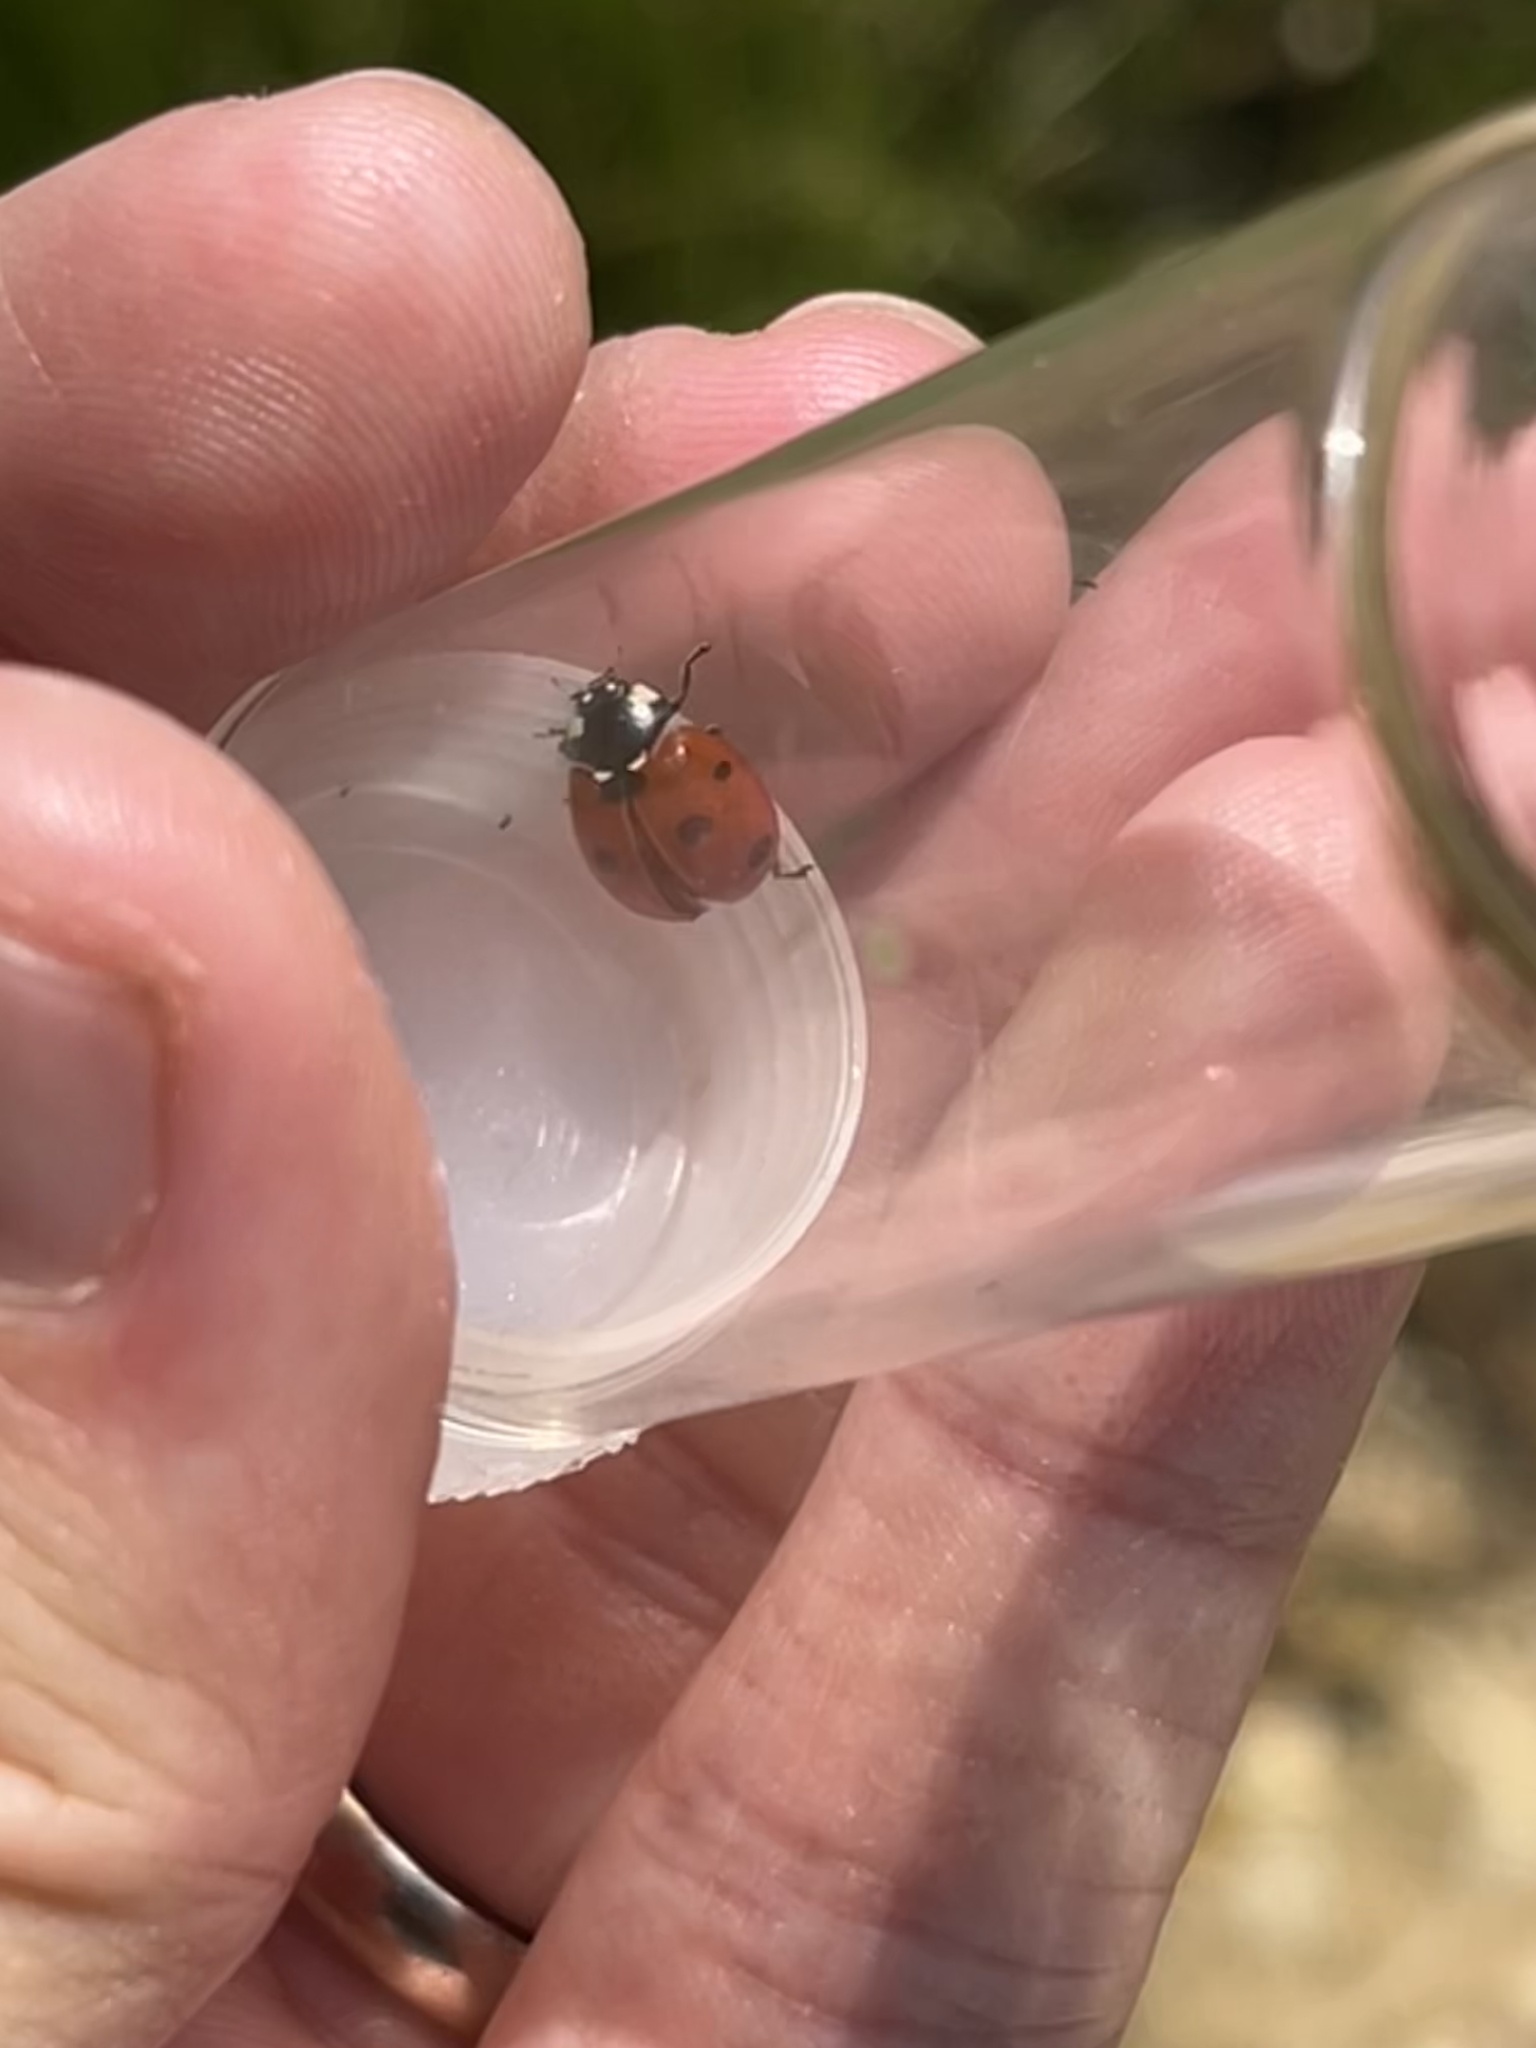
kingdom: Animalia
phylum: Arthropoda
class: Insecta
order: Coleoptera
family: Coccinellidae
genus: Coccinella
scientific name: Coccinella septempunctata
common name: Sevenspotted lady beetle
